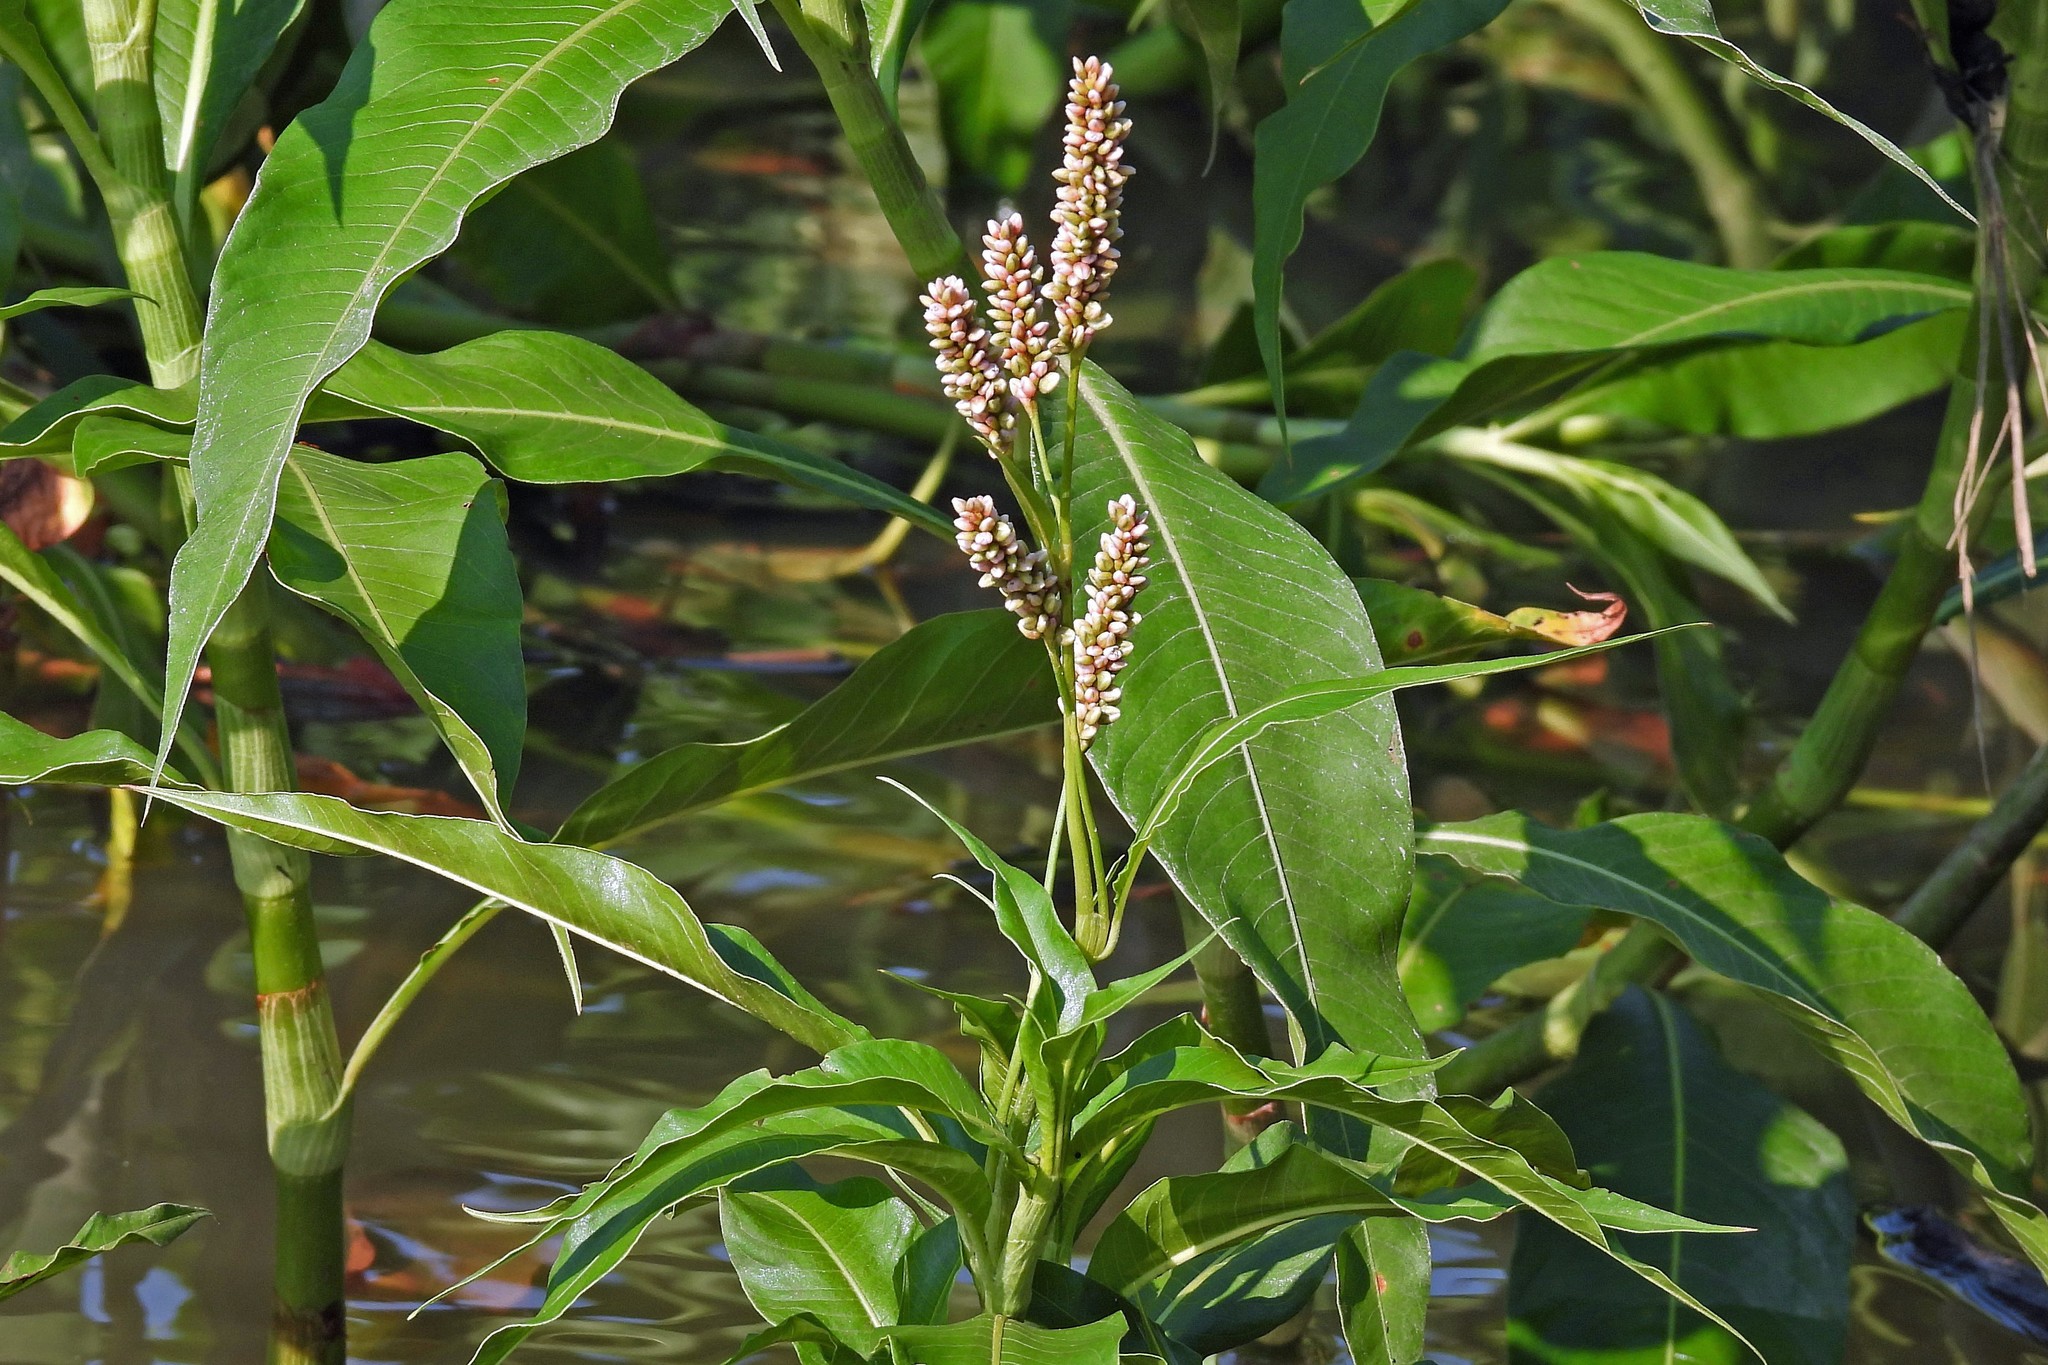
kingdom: Plantae
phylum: Tracheophyta
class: Magnoliopsida
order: Caryophyllales
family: Polygonaceae
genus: Persicaria
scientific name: Persicaria acuminata
